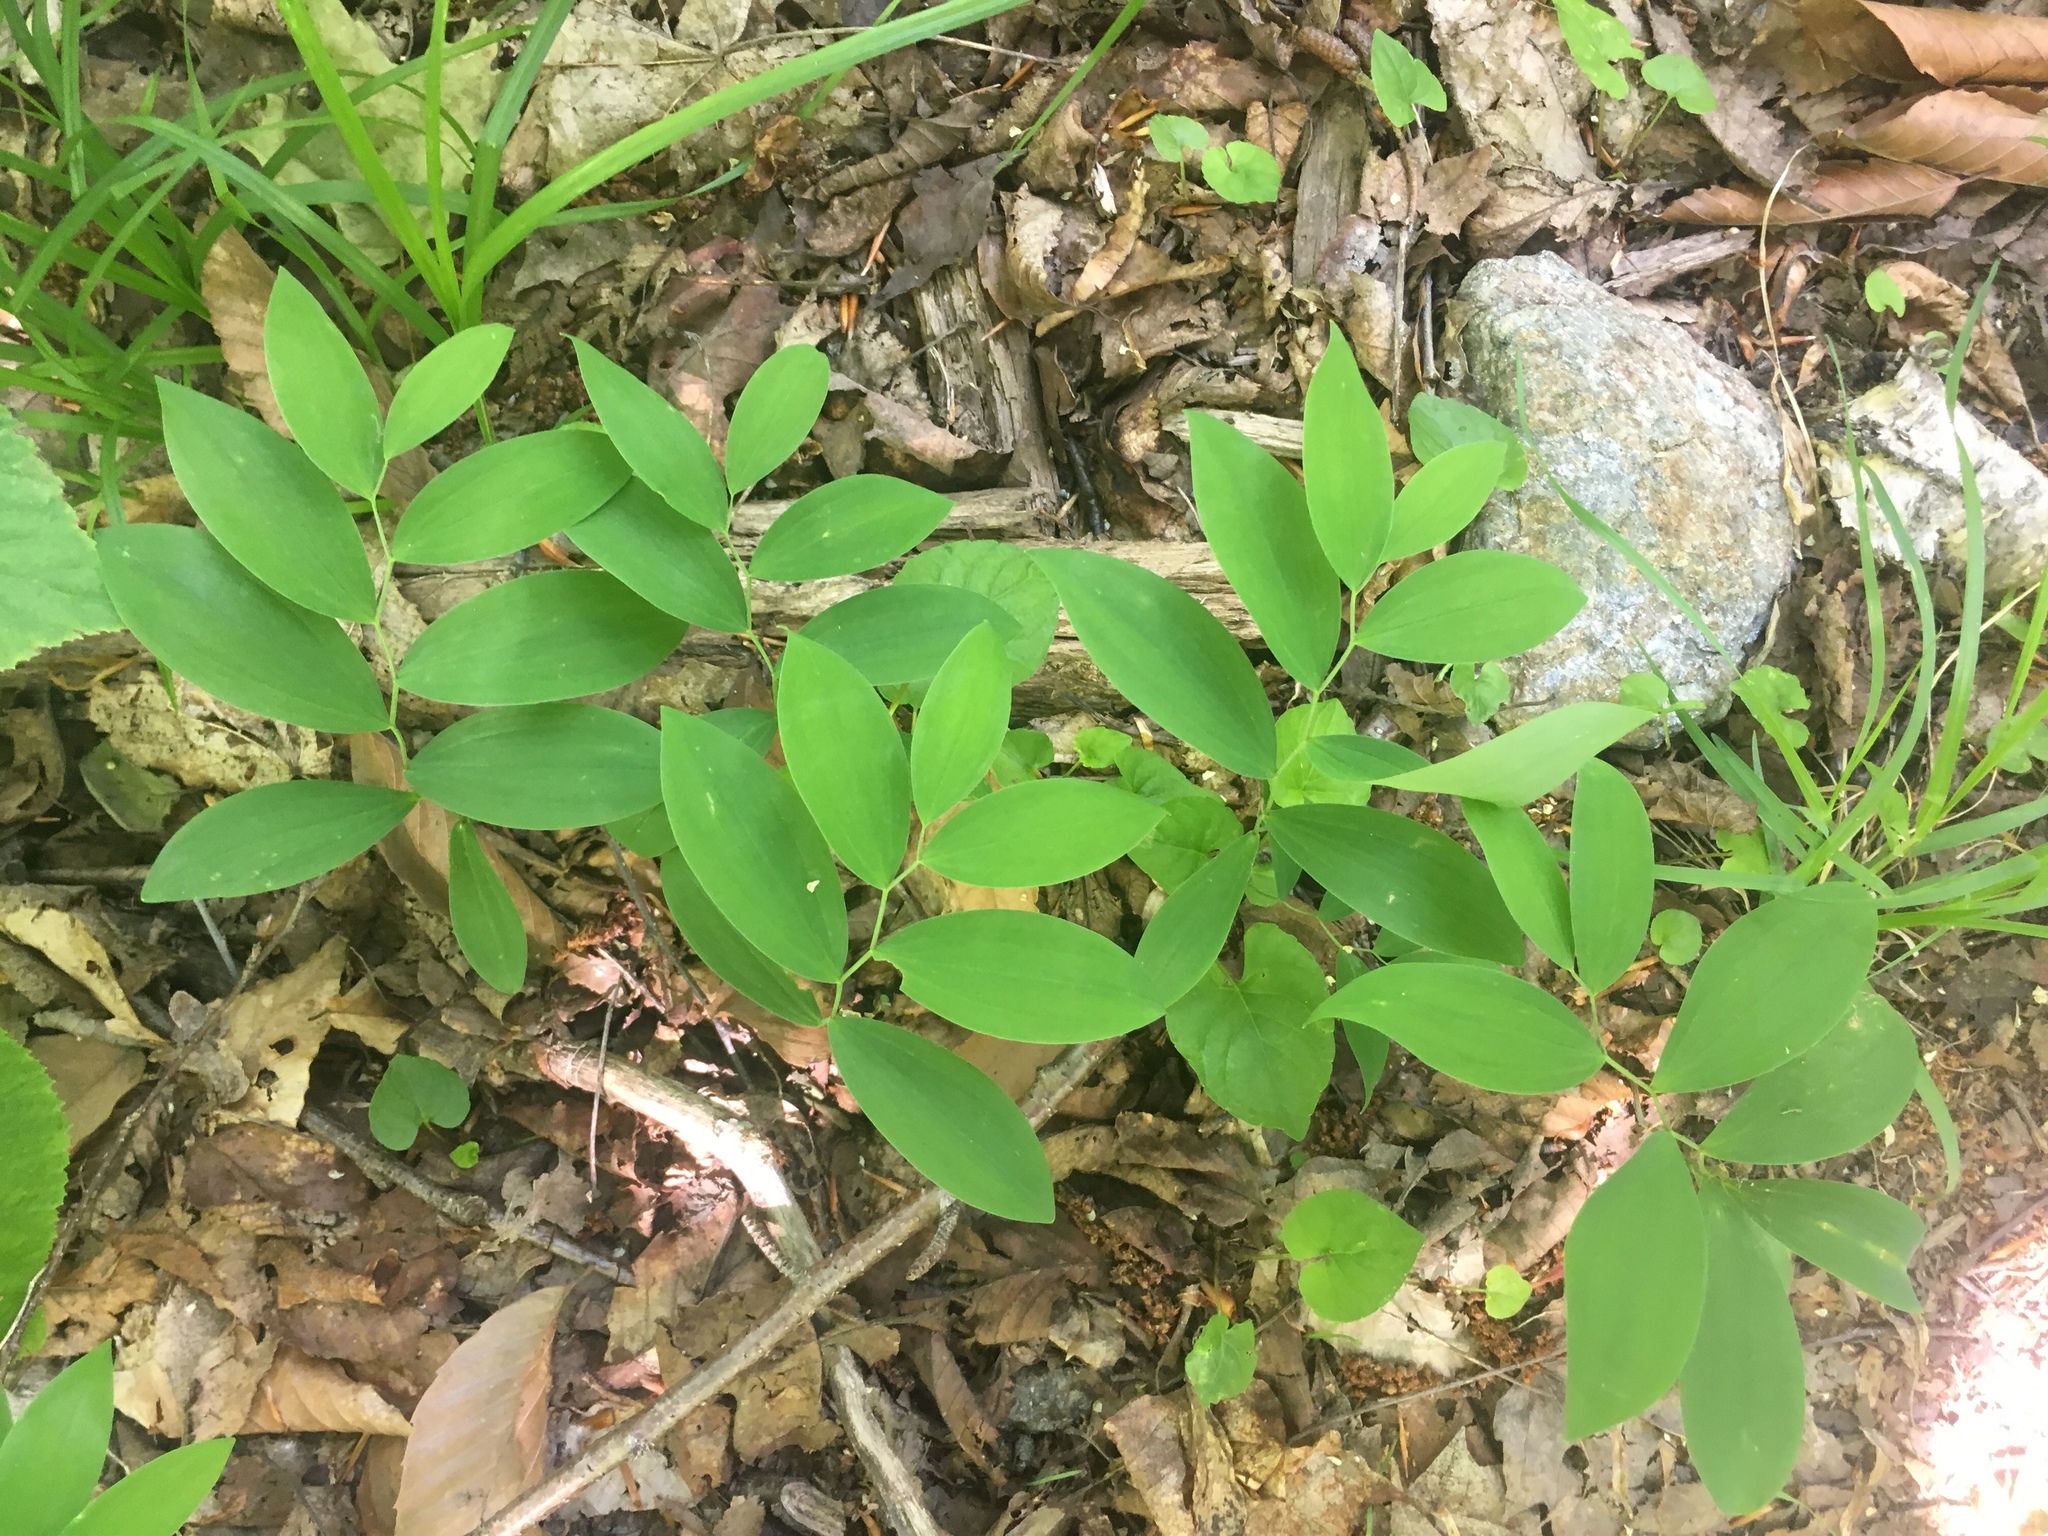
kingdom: Plantae
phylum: Tracheophyta
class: Liliopsida
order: Liliales
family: Colchicaceae
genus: Uvularia
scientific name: Uvularia sessilifolia
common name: Straw-lily
